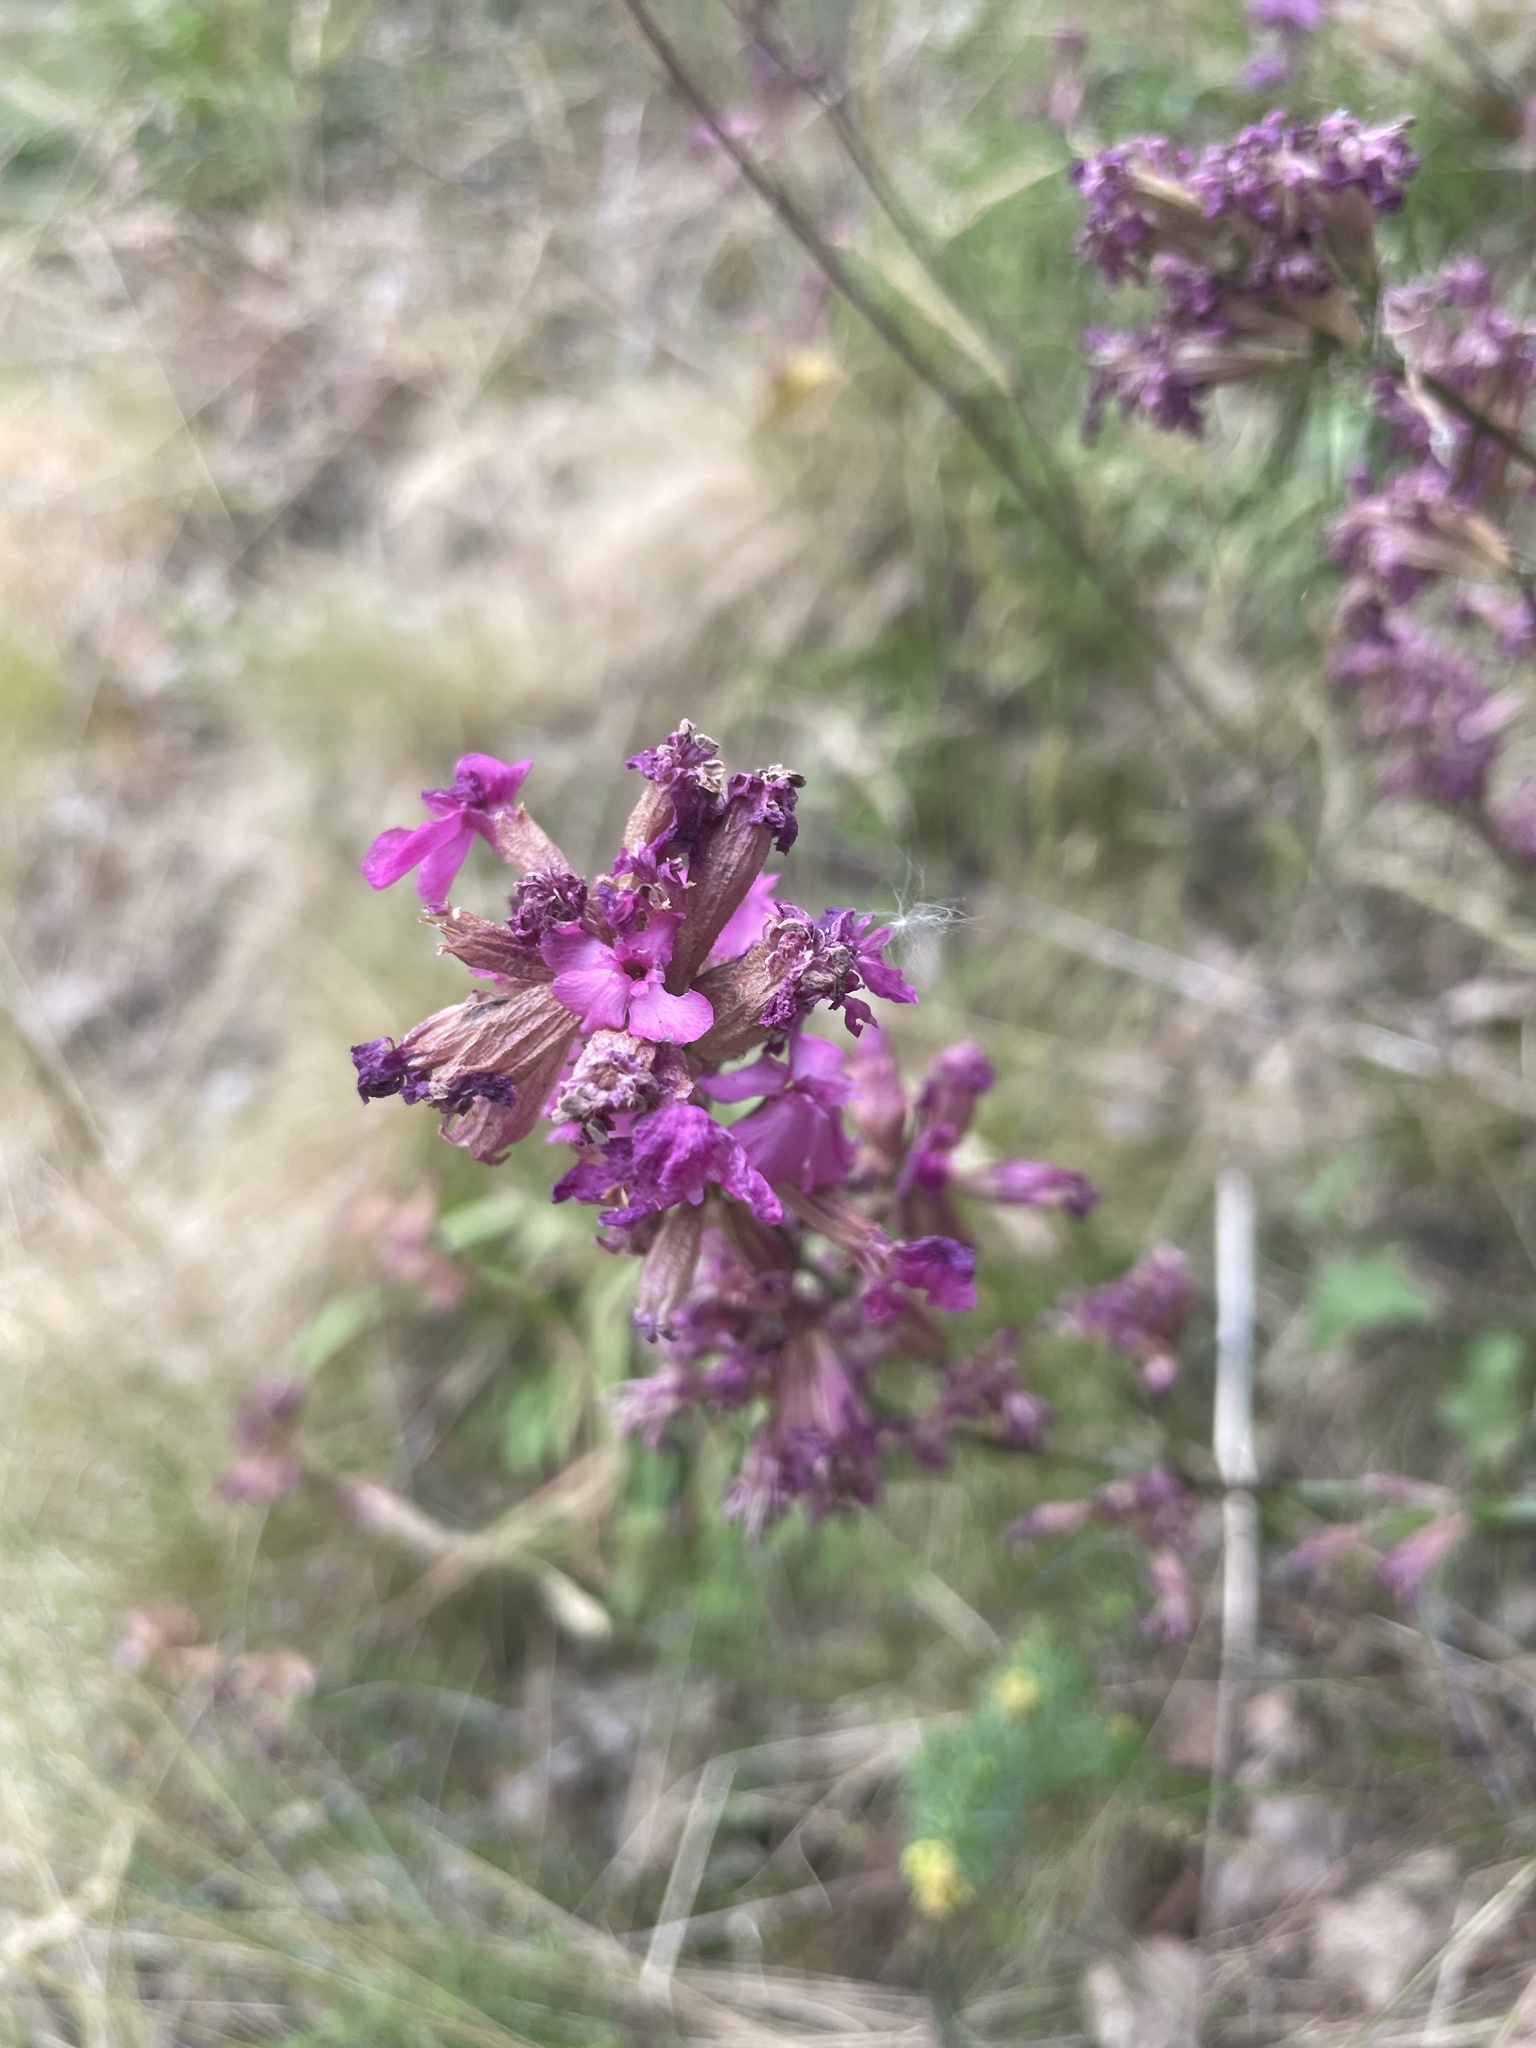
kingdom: Plantae
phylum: Tracheophyta
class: Magnoliopsida
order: Caryophyllales
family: Caryophyllaceae
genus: Viscaria
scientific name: Viscaria vulgaris
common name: Clammy campion
